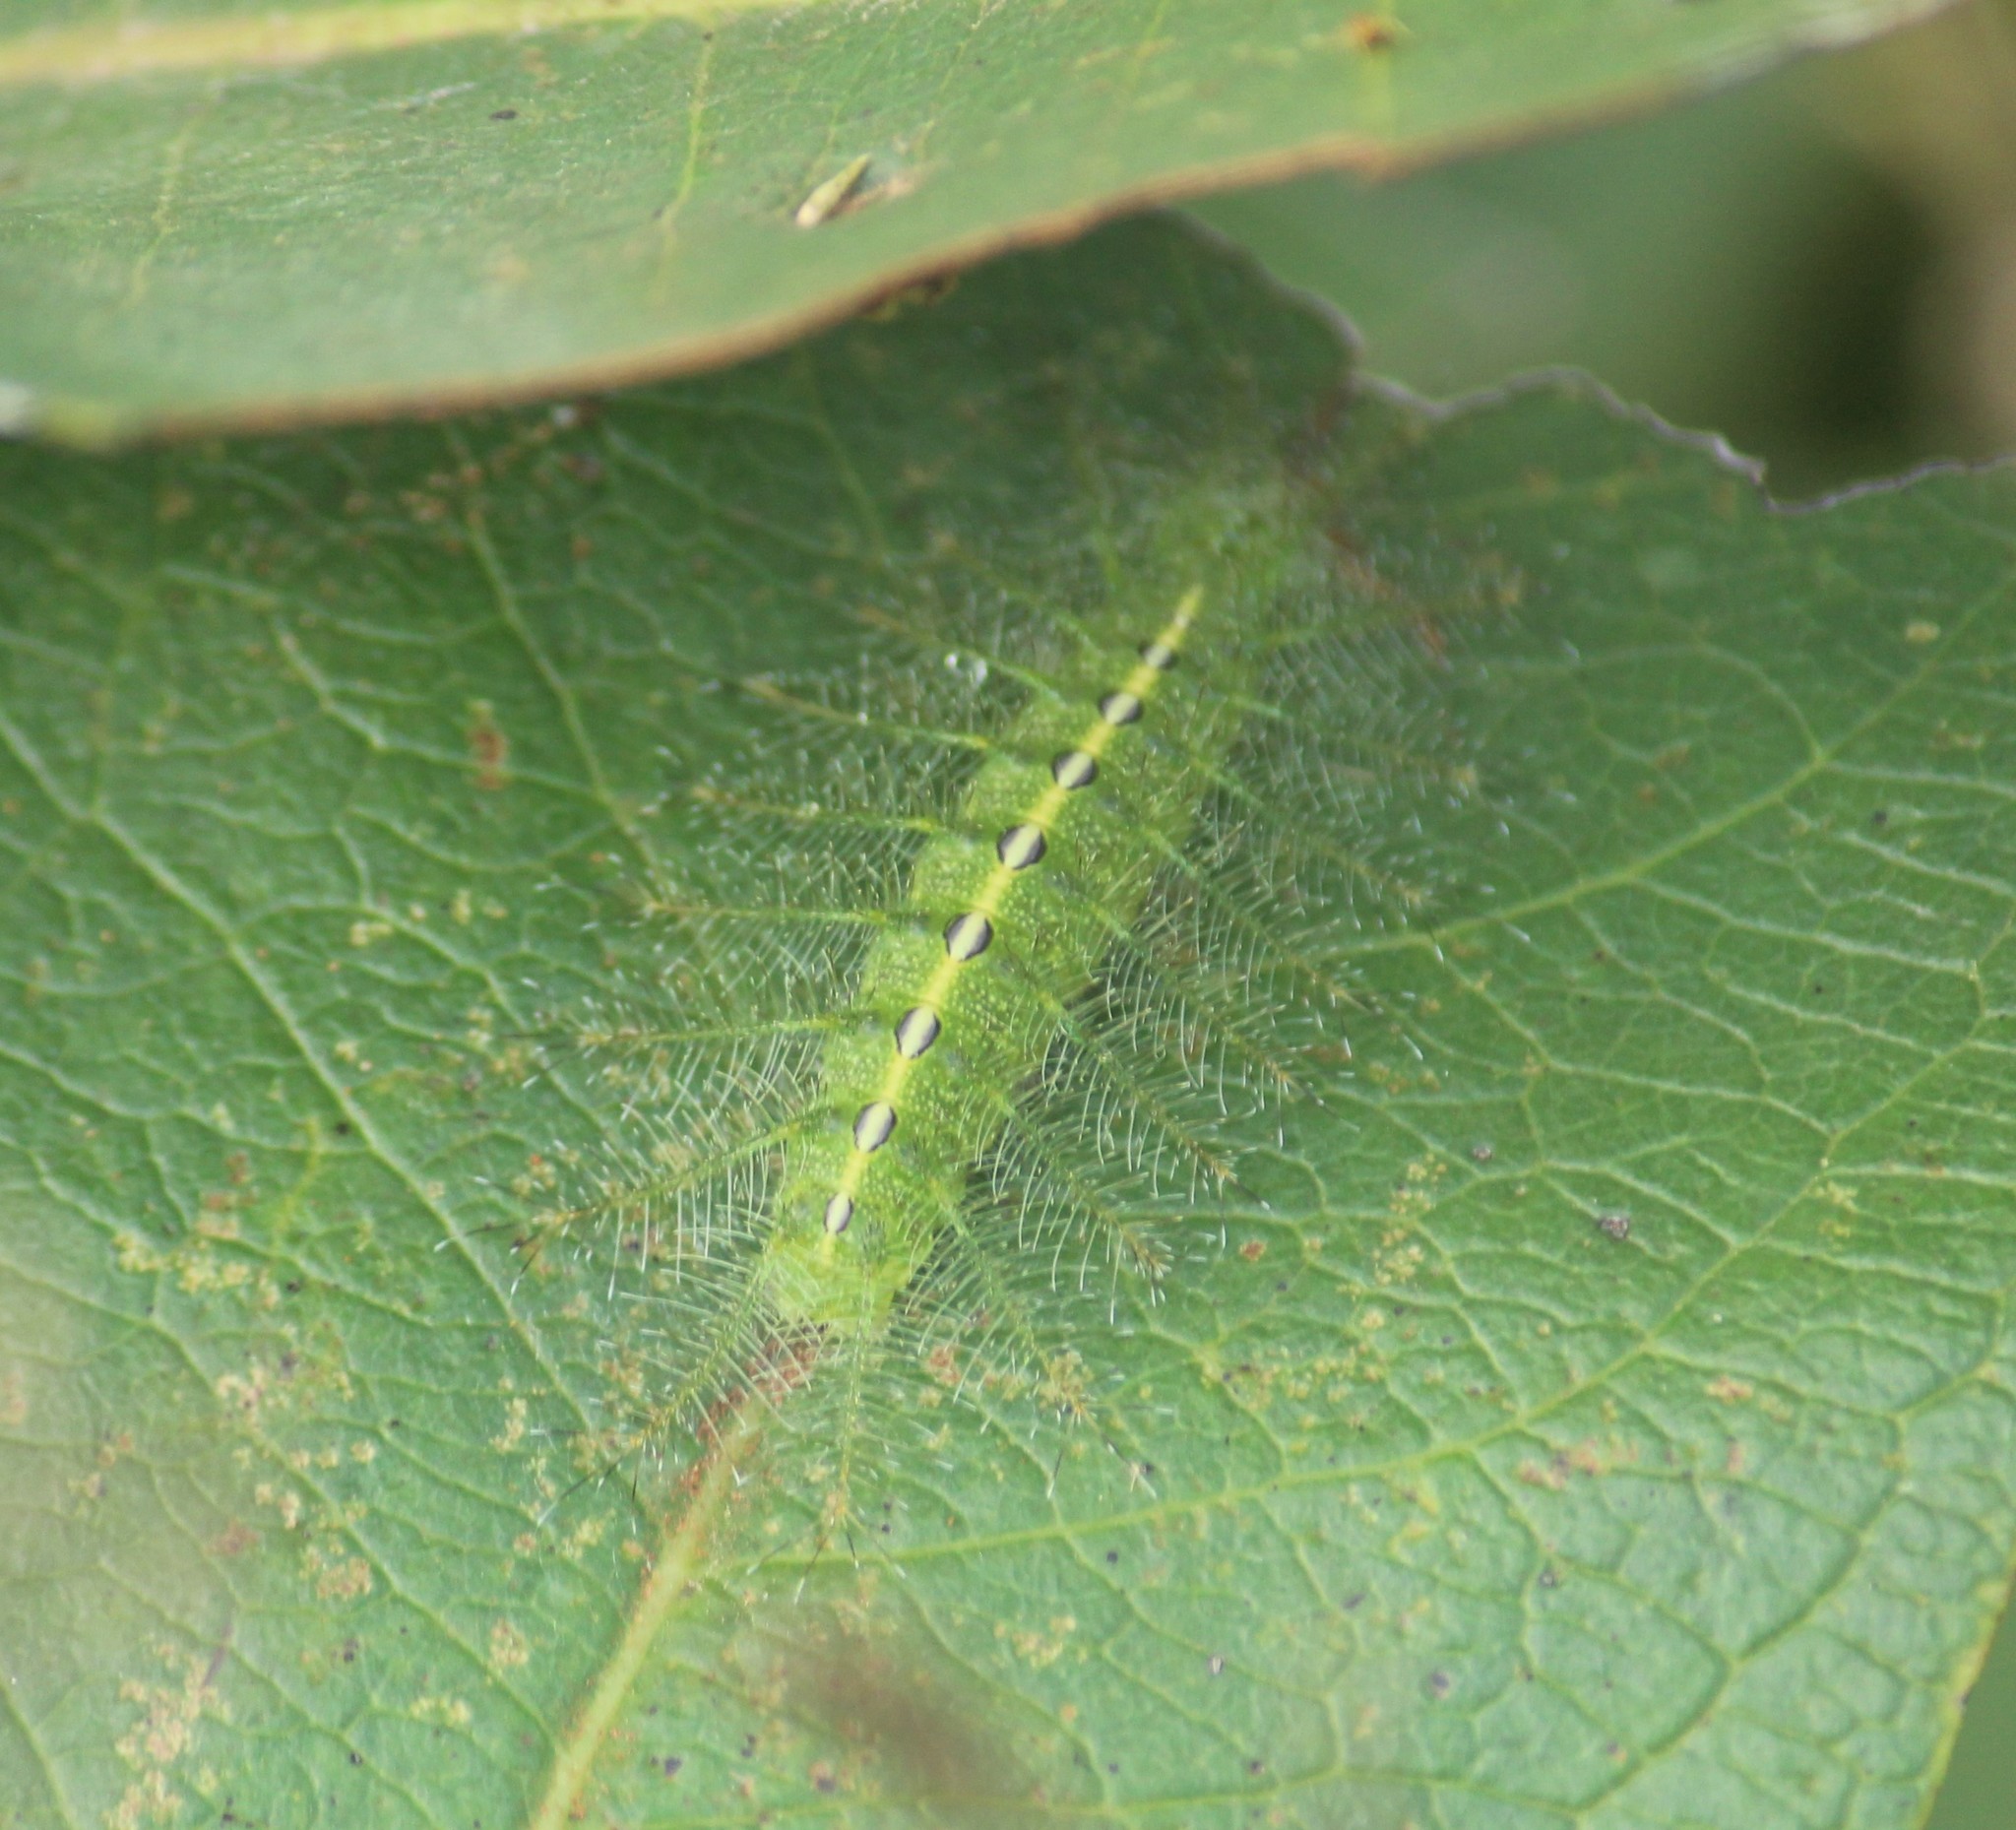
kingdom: Animalia
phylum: Arthropoda
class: Insecta
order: Lepidoptera
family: Nymphalidae
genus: Euthalia
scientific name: Euthalia nais
